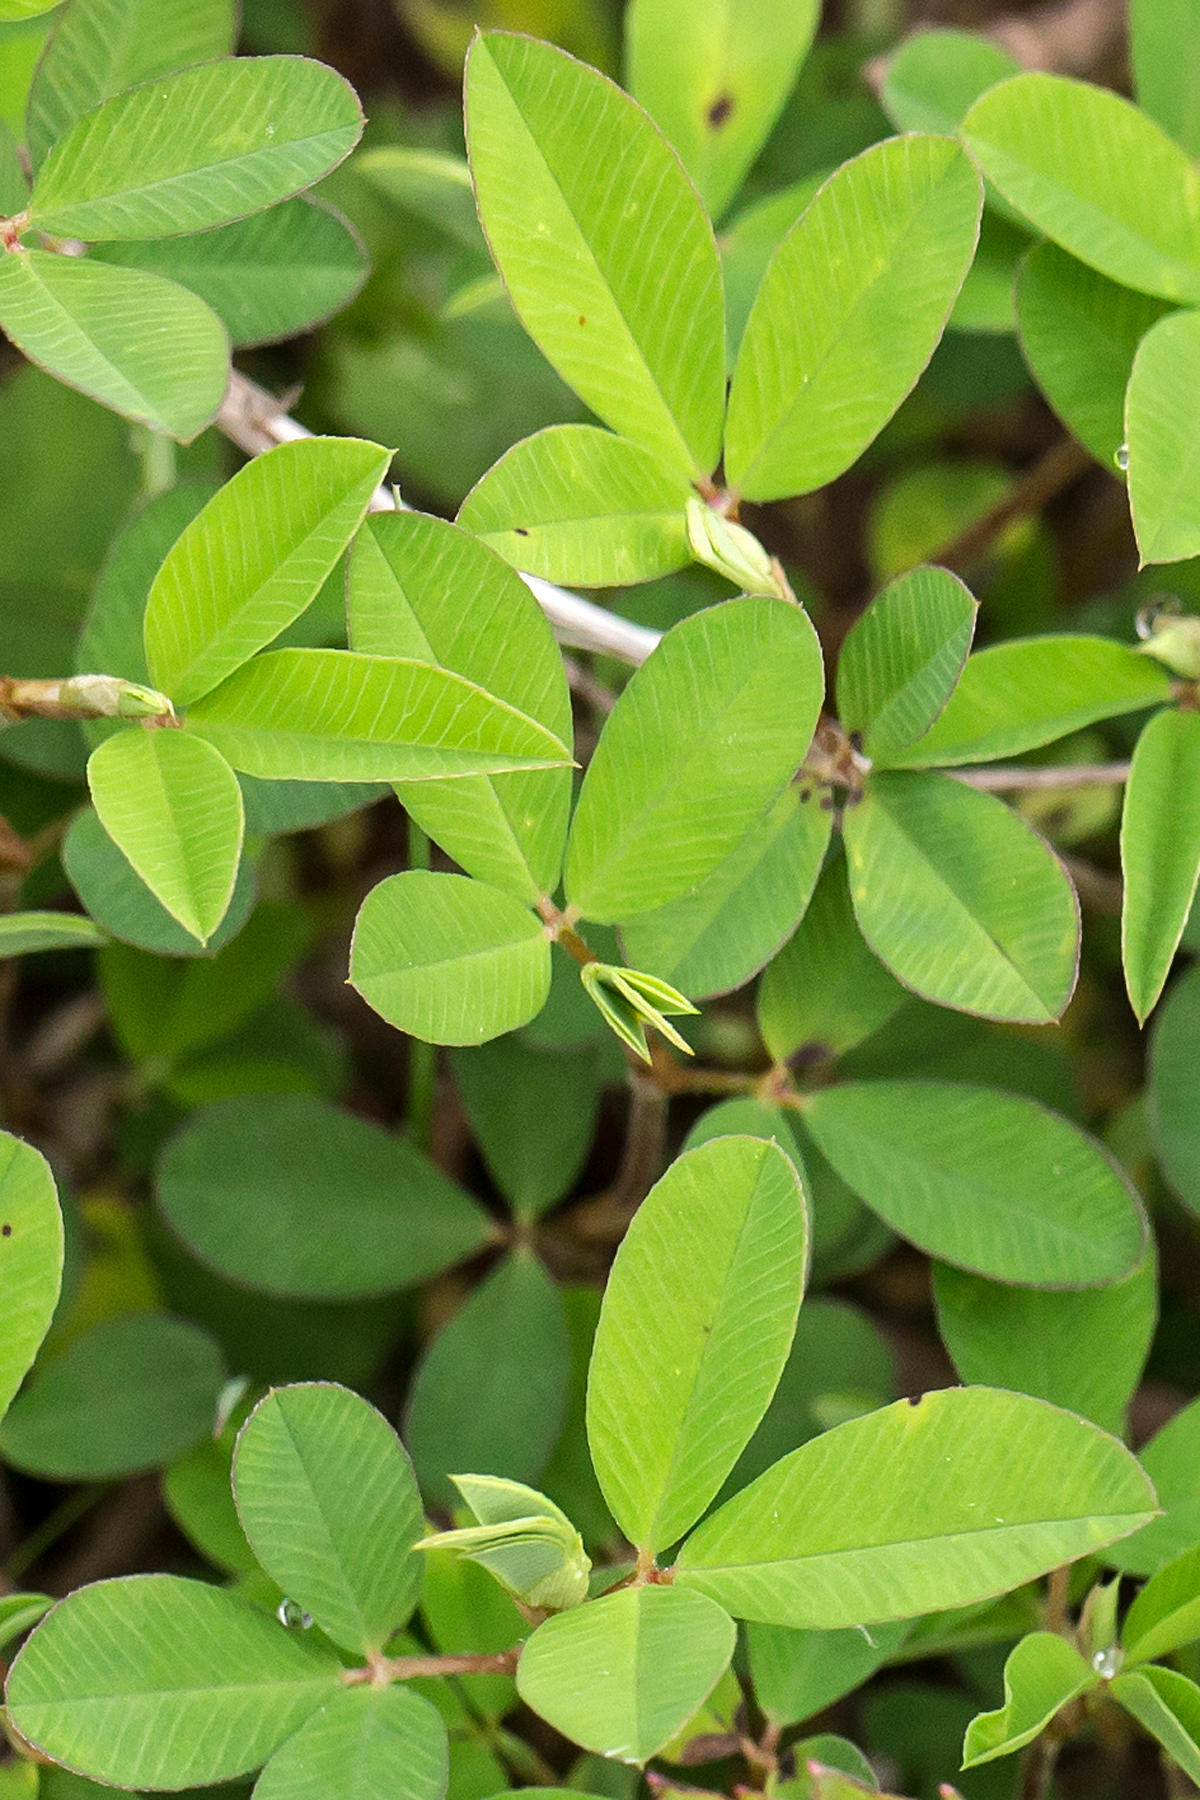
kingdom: Plantae
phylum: Tracheophyta
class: Magnoliopsida
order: Fabales
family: Fabaceae
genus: Kummerowia
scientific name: Kummerowia striata
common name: Japanese clover
